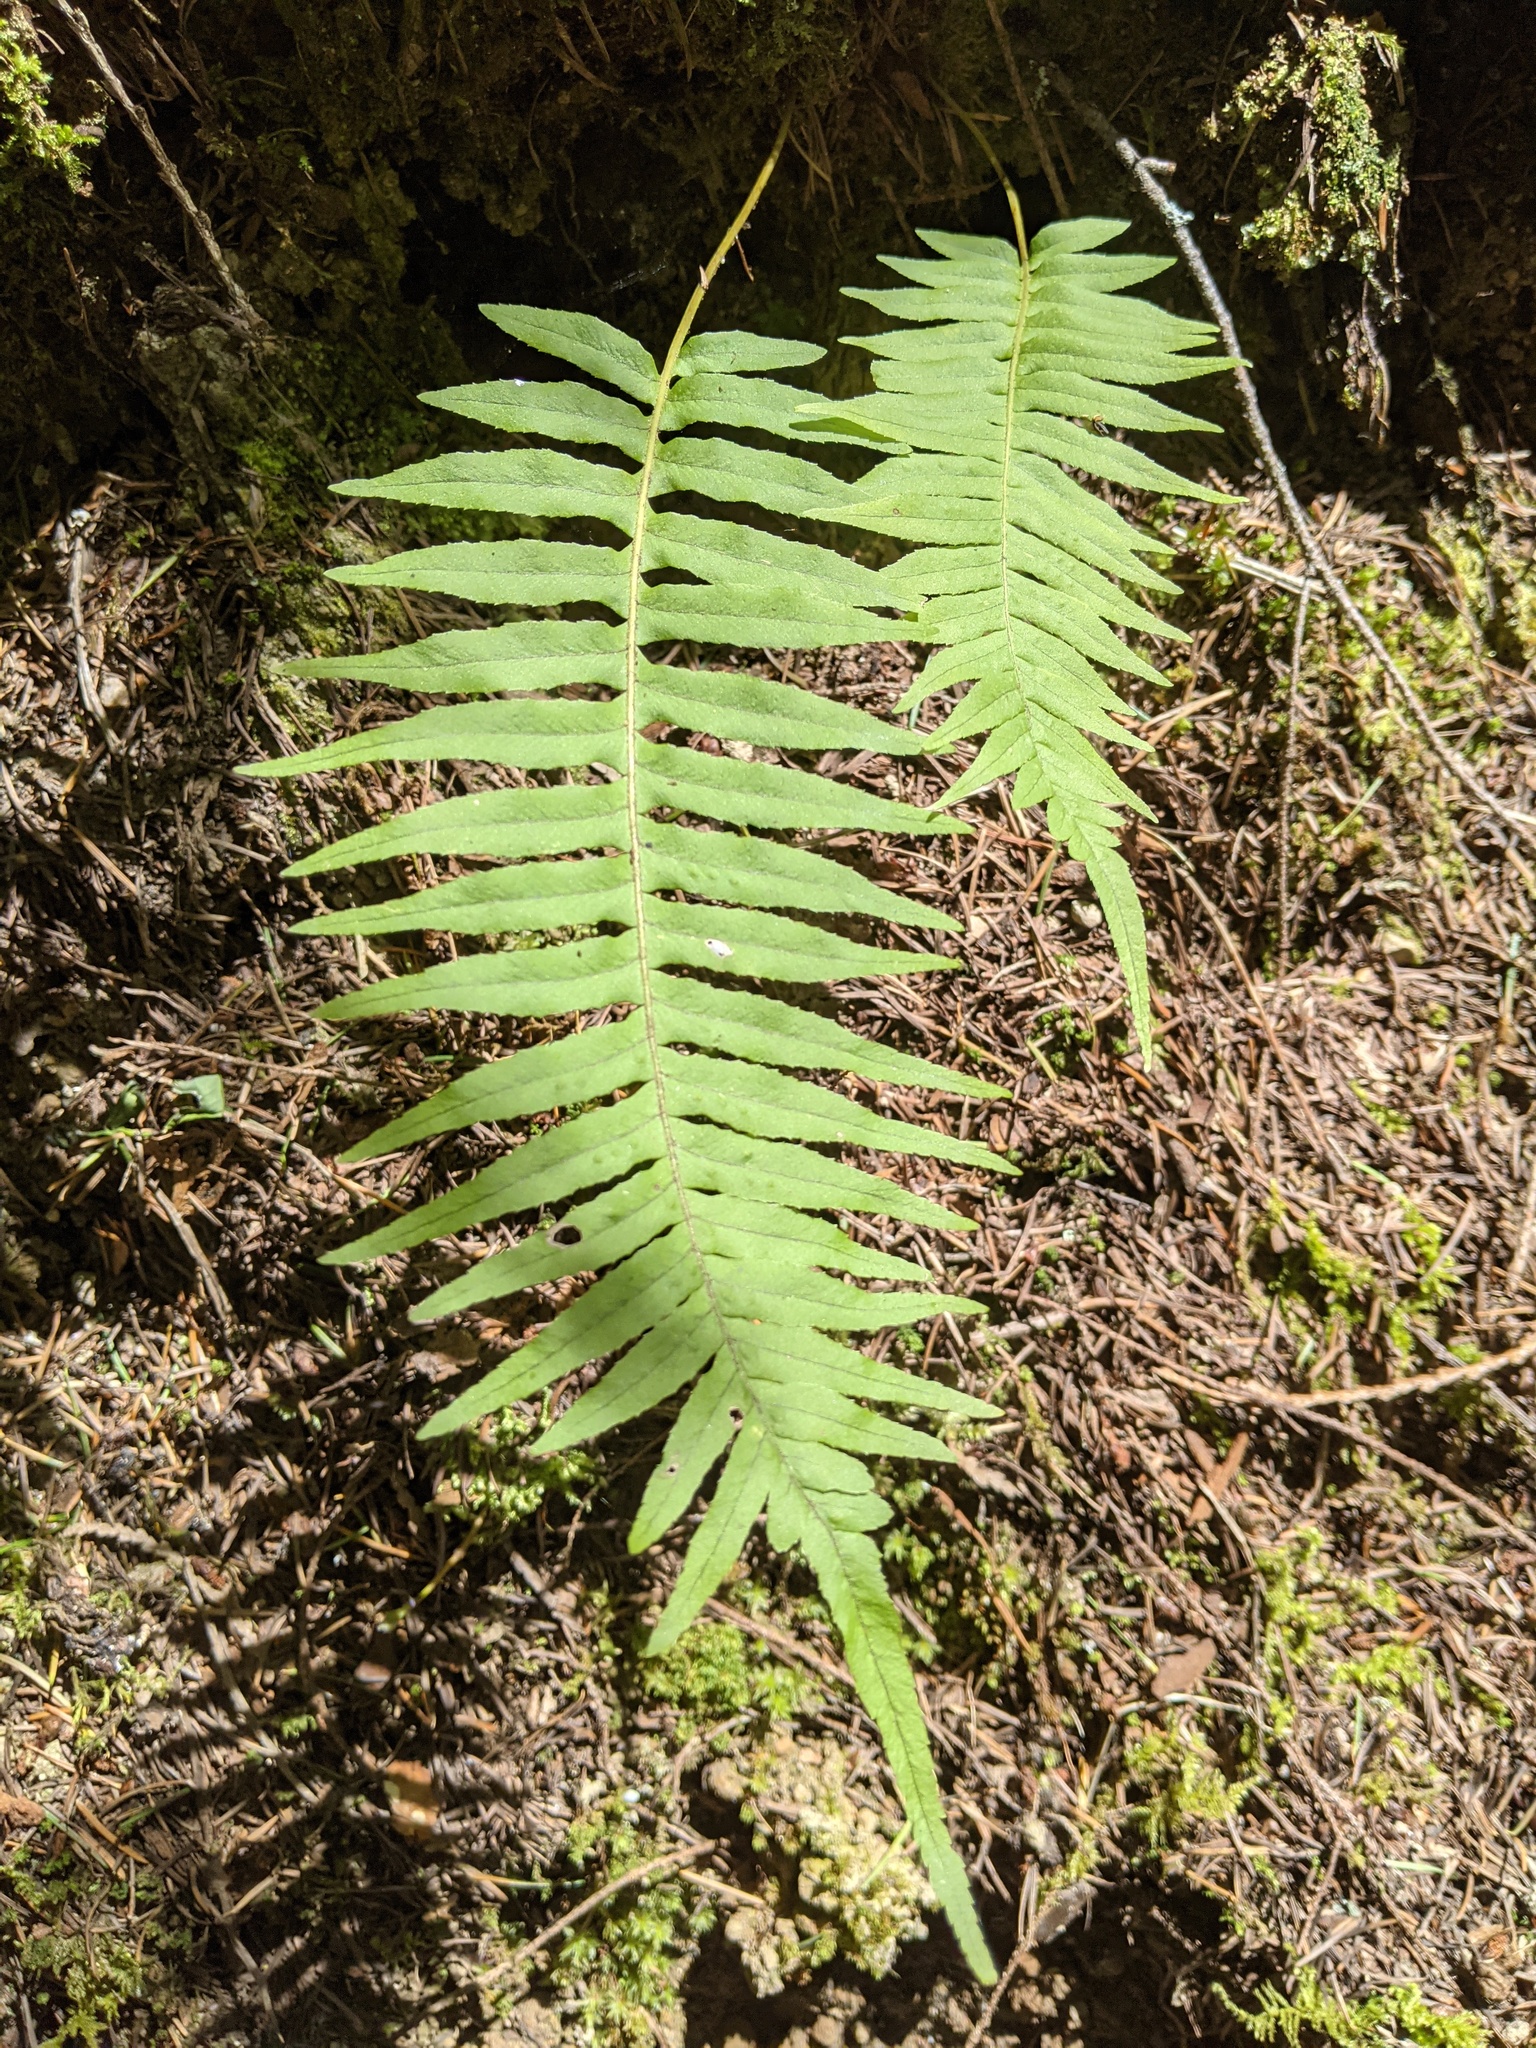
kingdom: Plantae
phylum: Tracheophyta
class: Polypodiopsida
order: Polypodiales
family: Polypodiaceae
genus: Polypodium
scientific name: Polypodium glycyrrhiza
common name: Licorice fern
